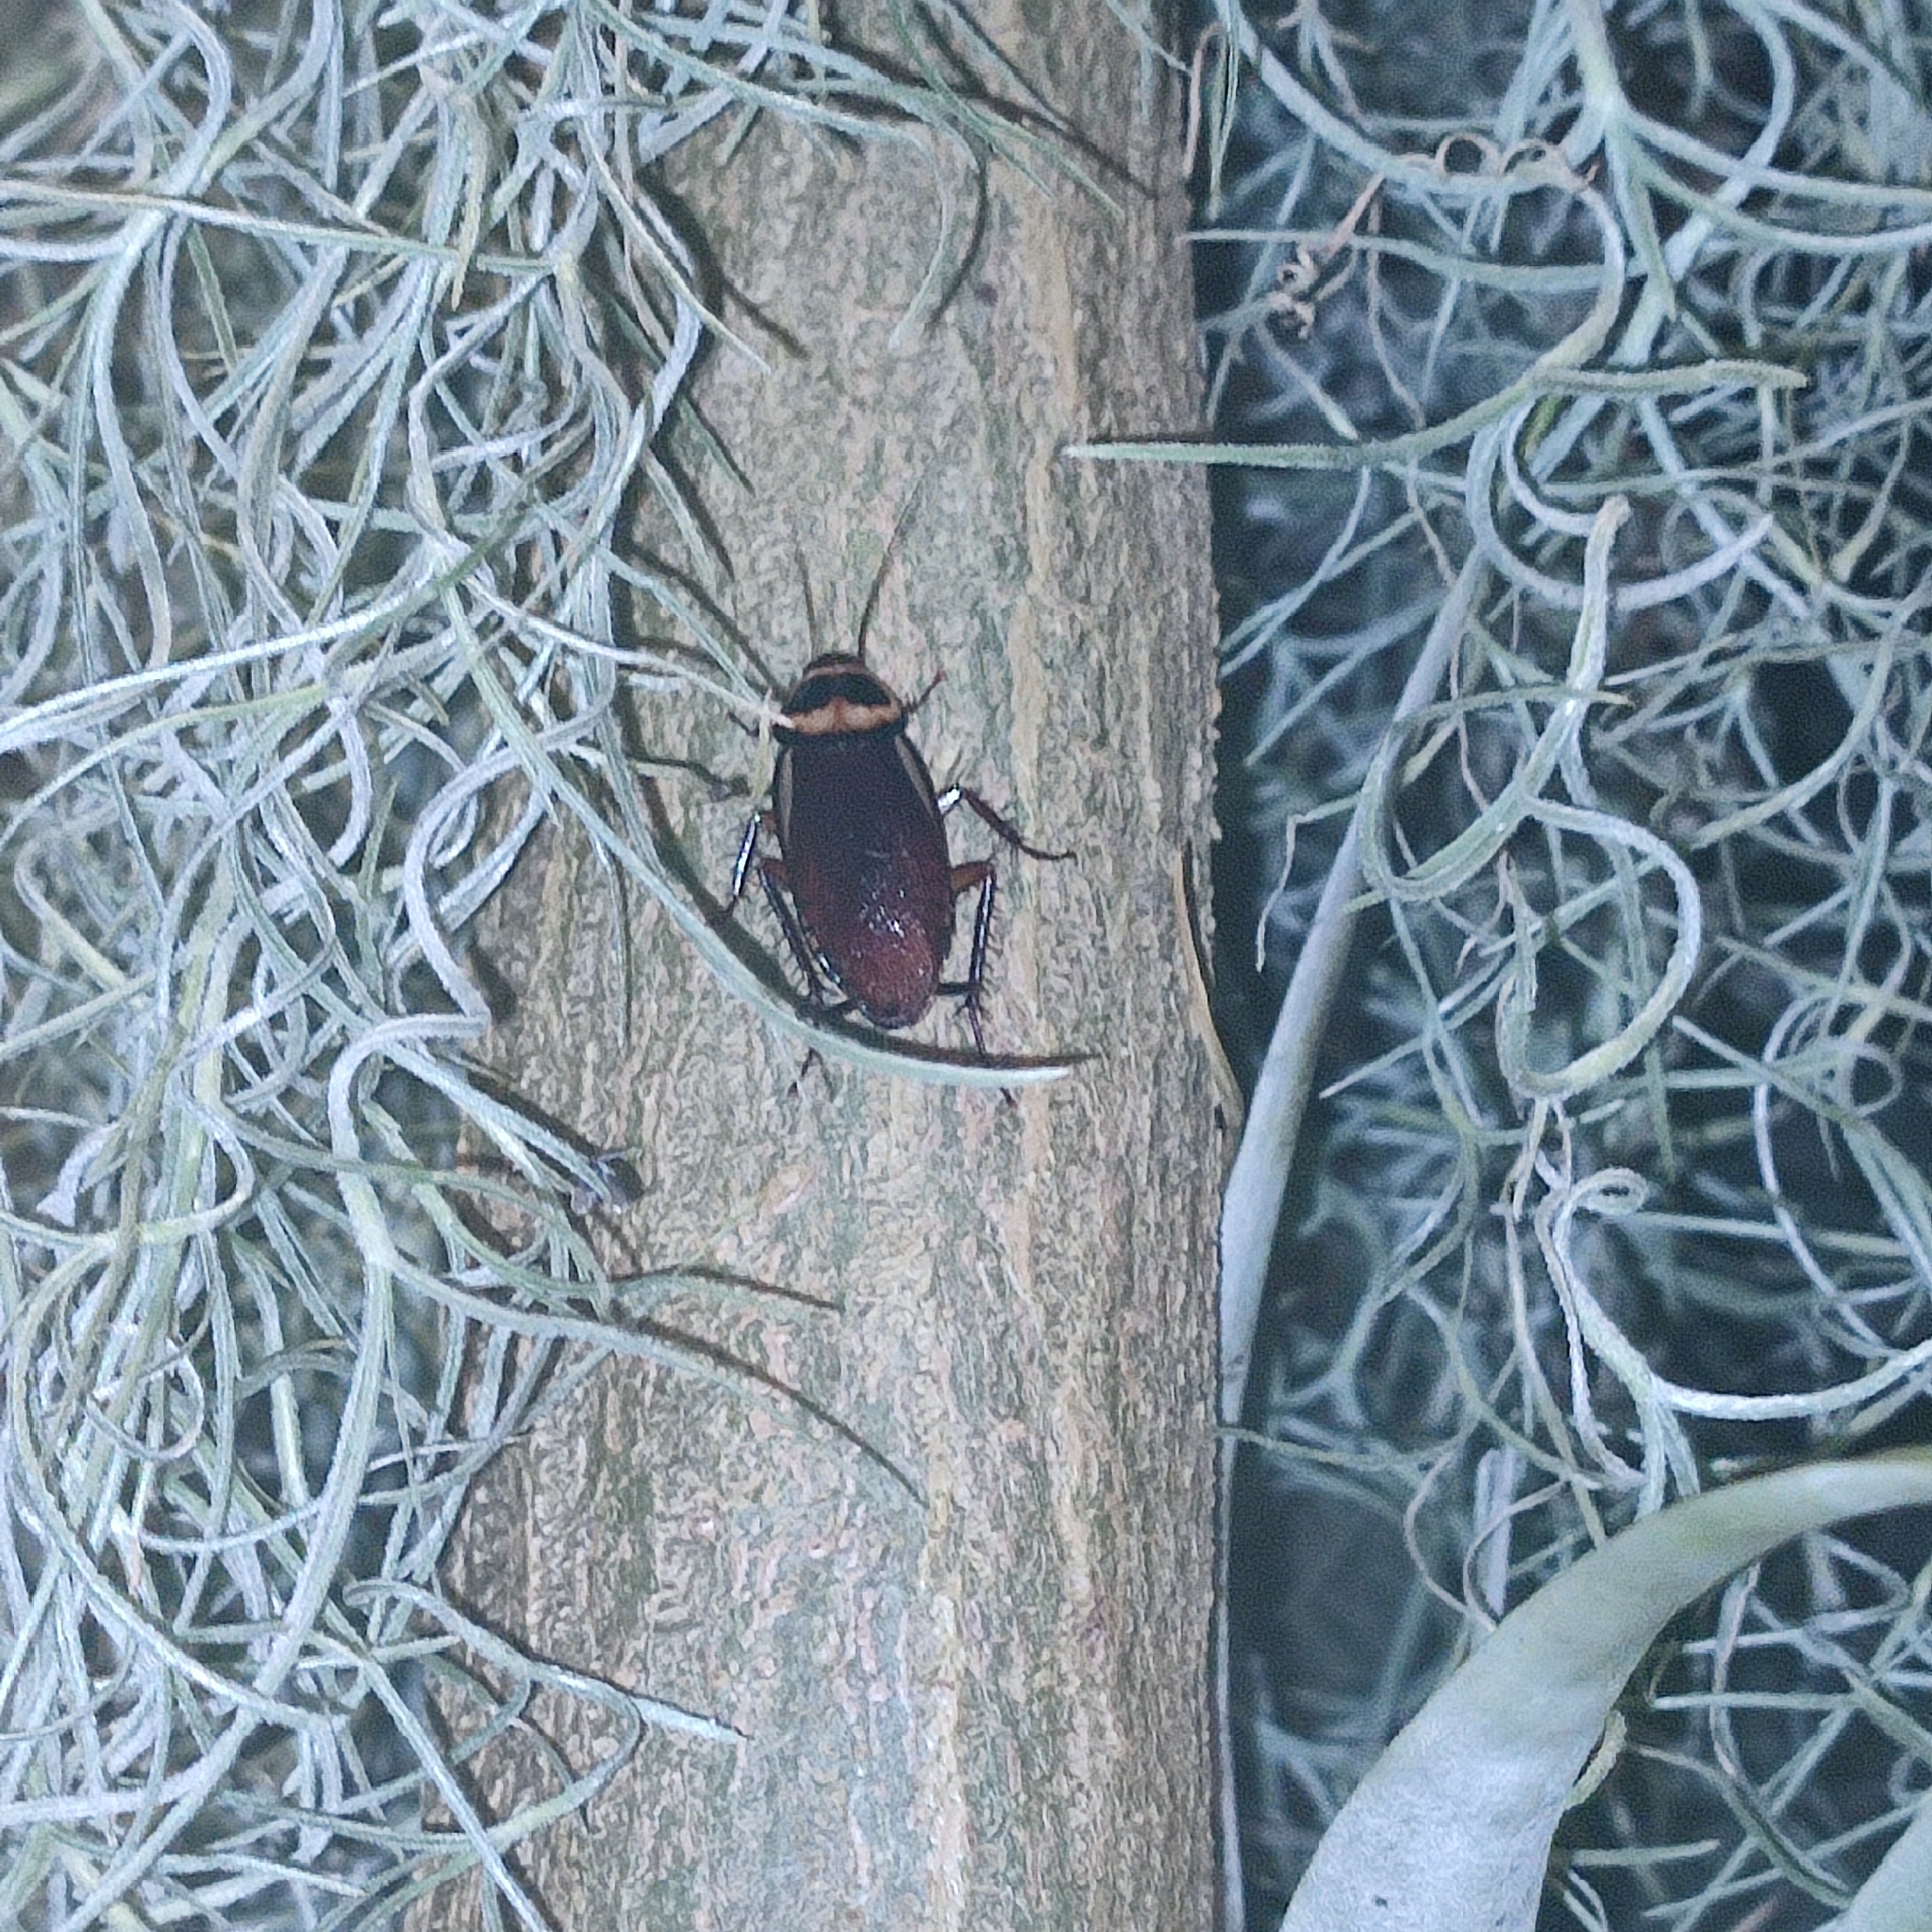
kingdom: Animalia
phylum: Arthropoda
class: Insecta
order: Blattodea
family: Blattidae
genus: Periplaneta
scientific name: Periplaneta australasiae
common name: Australian cockroach
